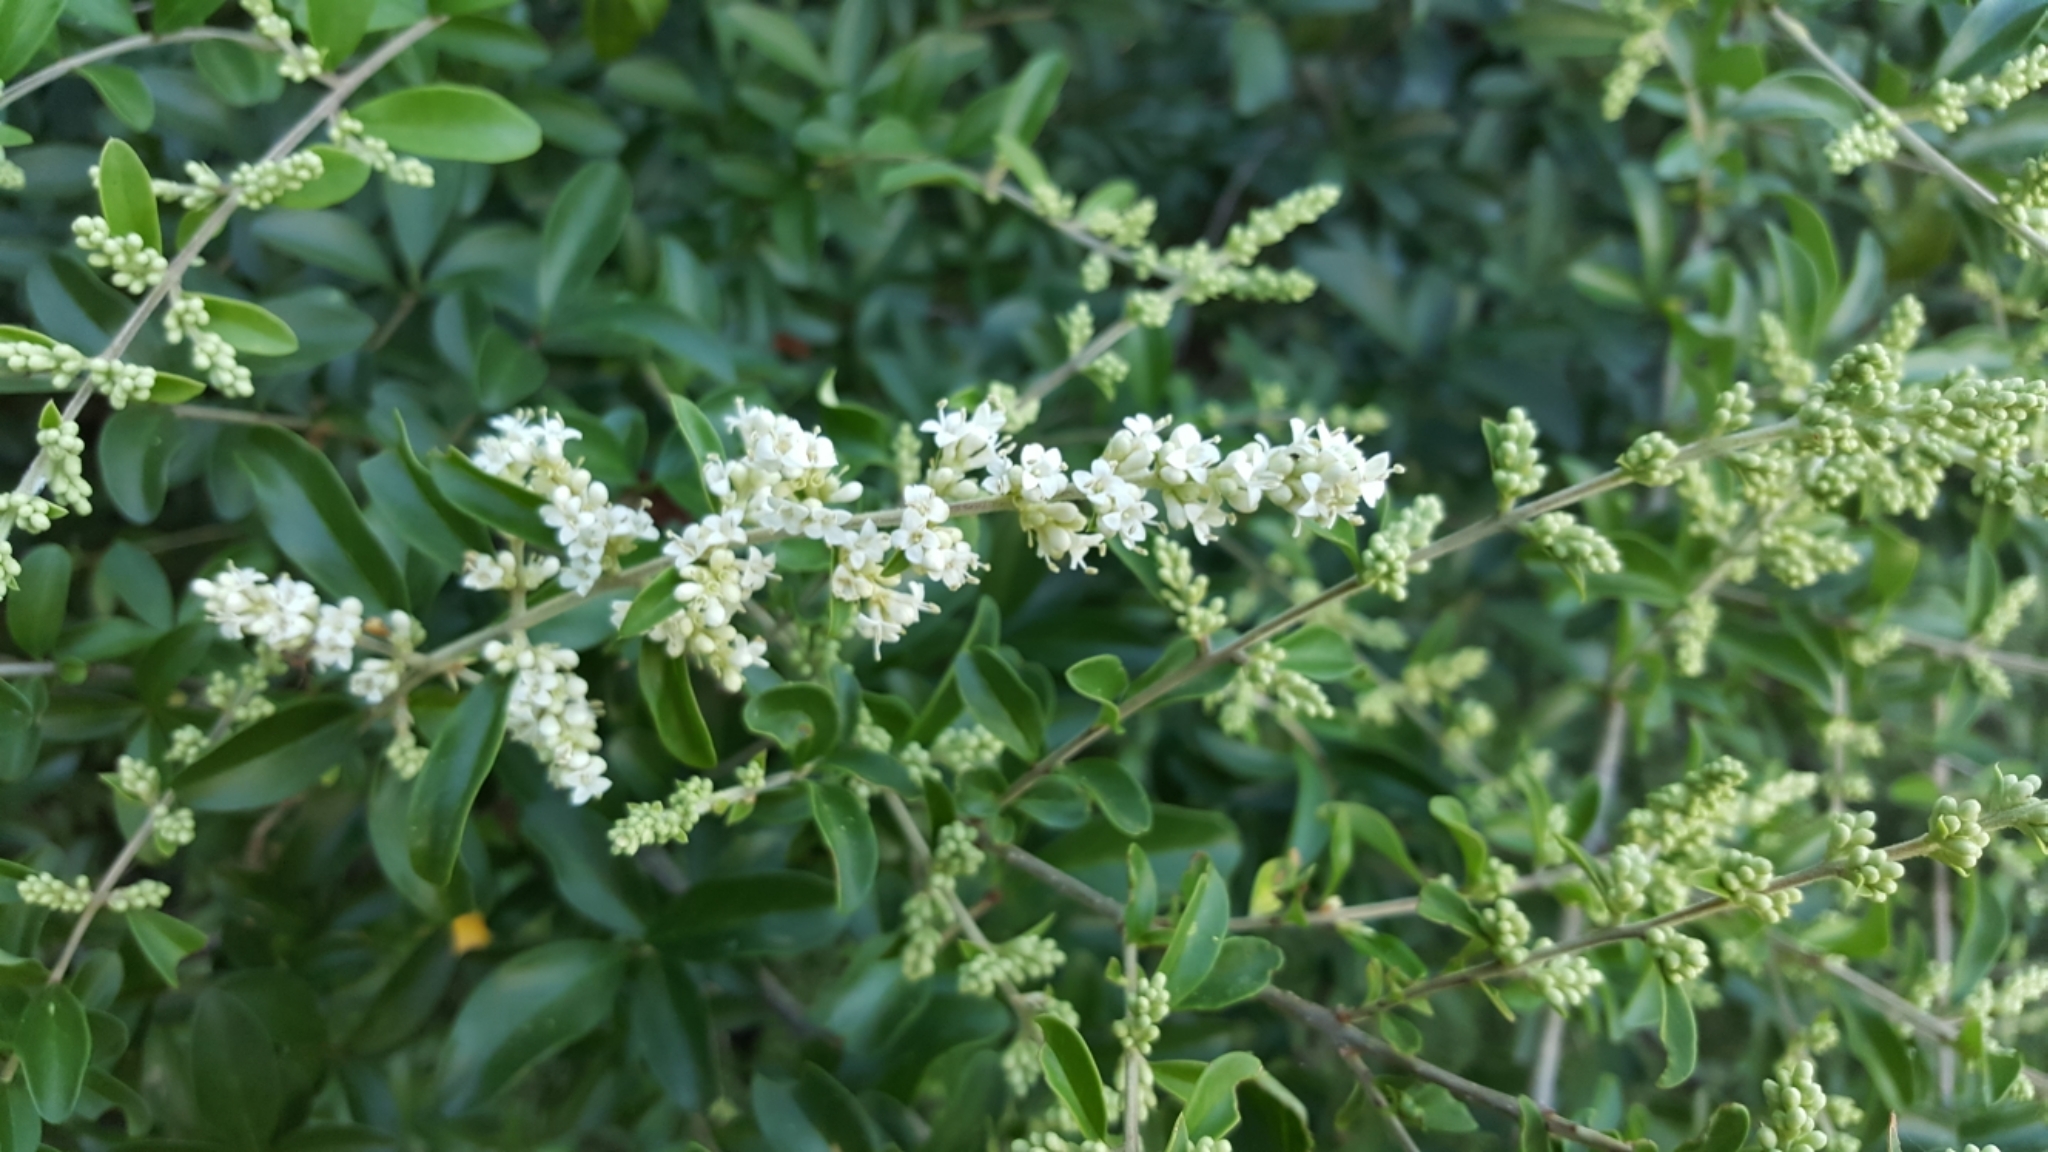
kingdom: Plantae
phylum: Tracheophyta
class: Magnoliopsida
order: Lamiales
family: Oleaceae
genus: Ligustrum
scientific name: Ligustrum quihoui
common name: Waxyleaf privet
